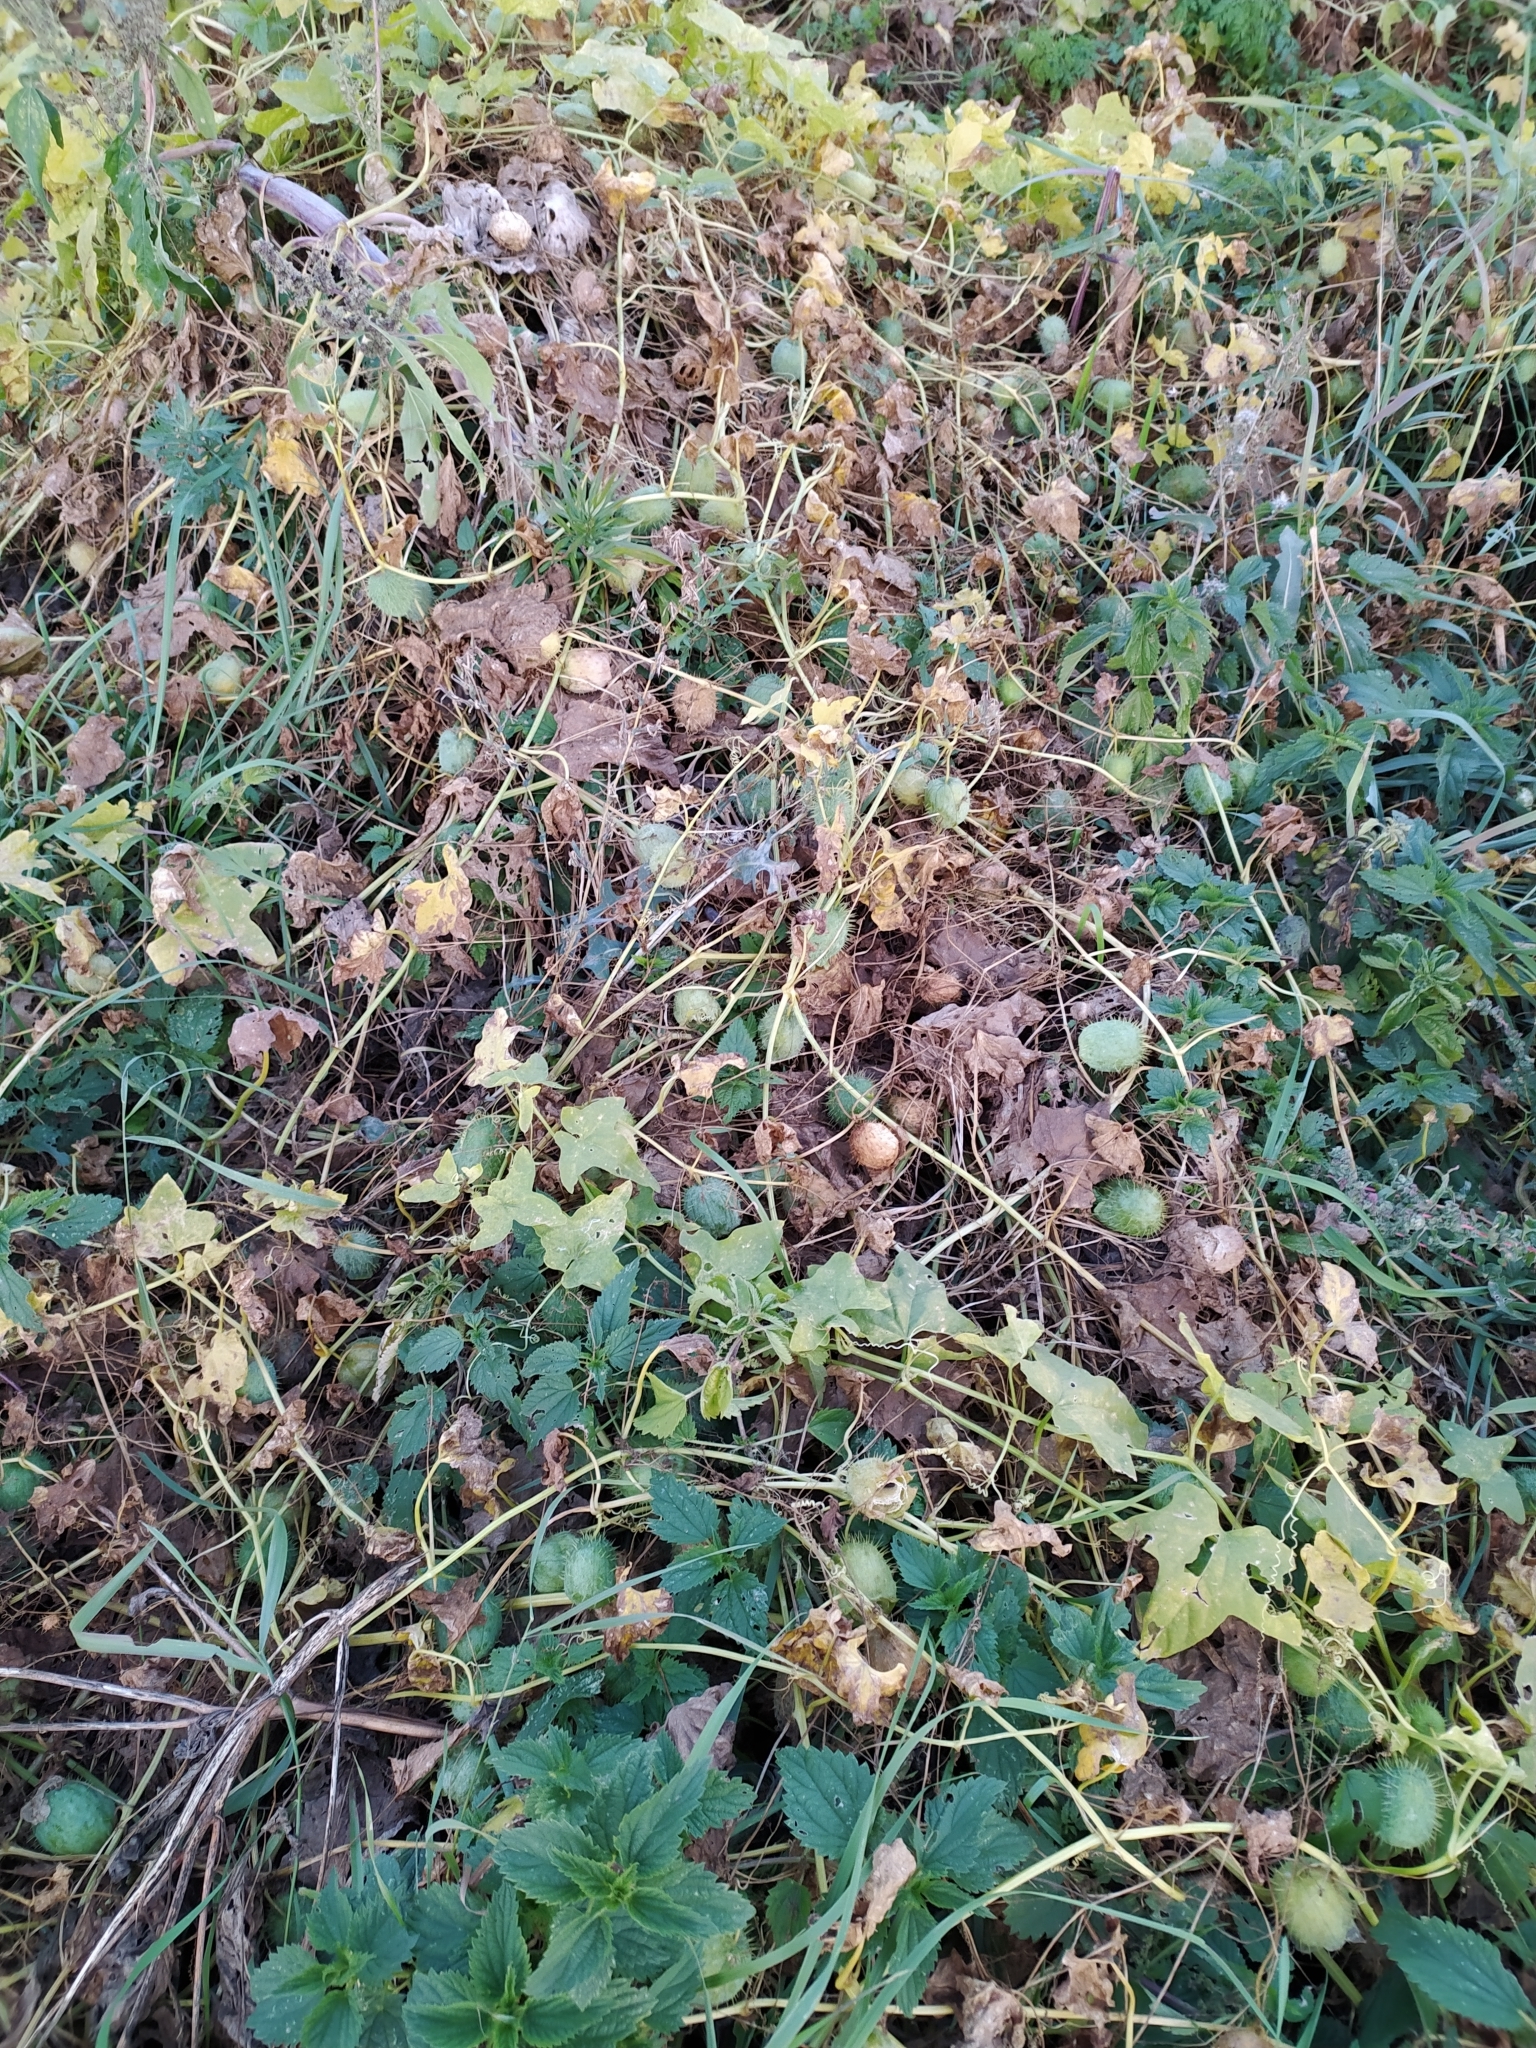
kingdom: Plantae
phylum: Tracheophyta
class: Magnoliopsida
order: Cucurbitales
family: Cucurbitaceae
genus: Echinocystis
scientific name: Echinocystis lobata
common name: Wild cucumber
